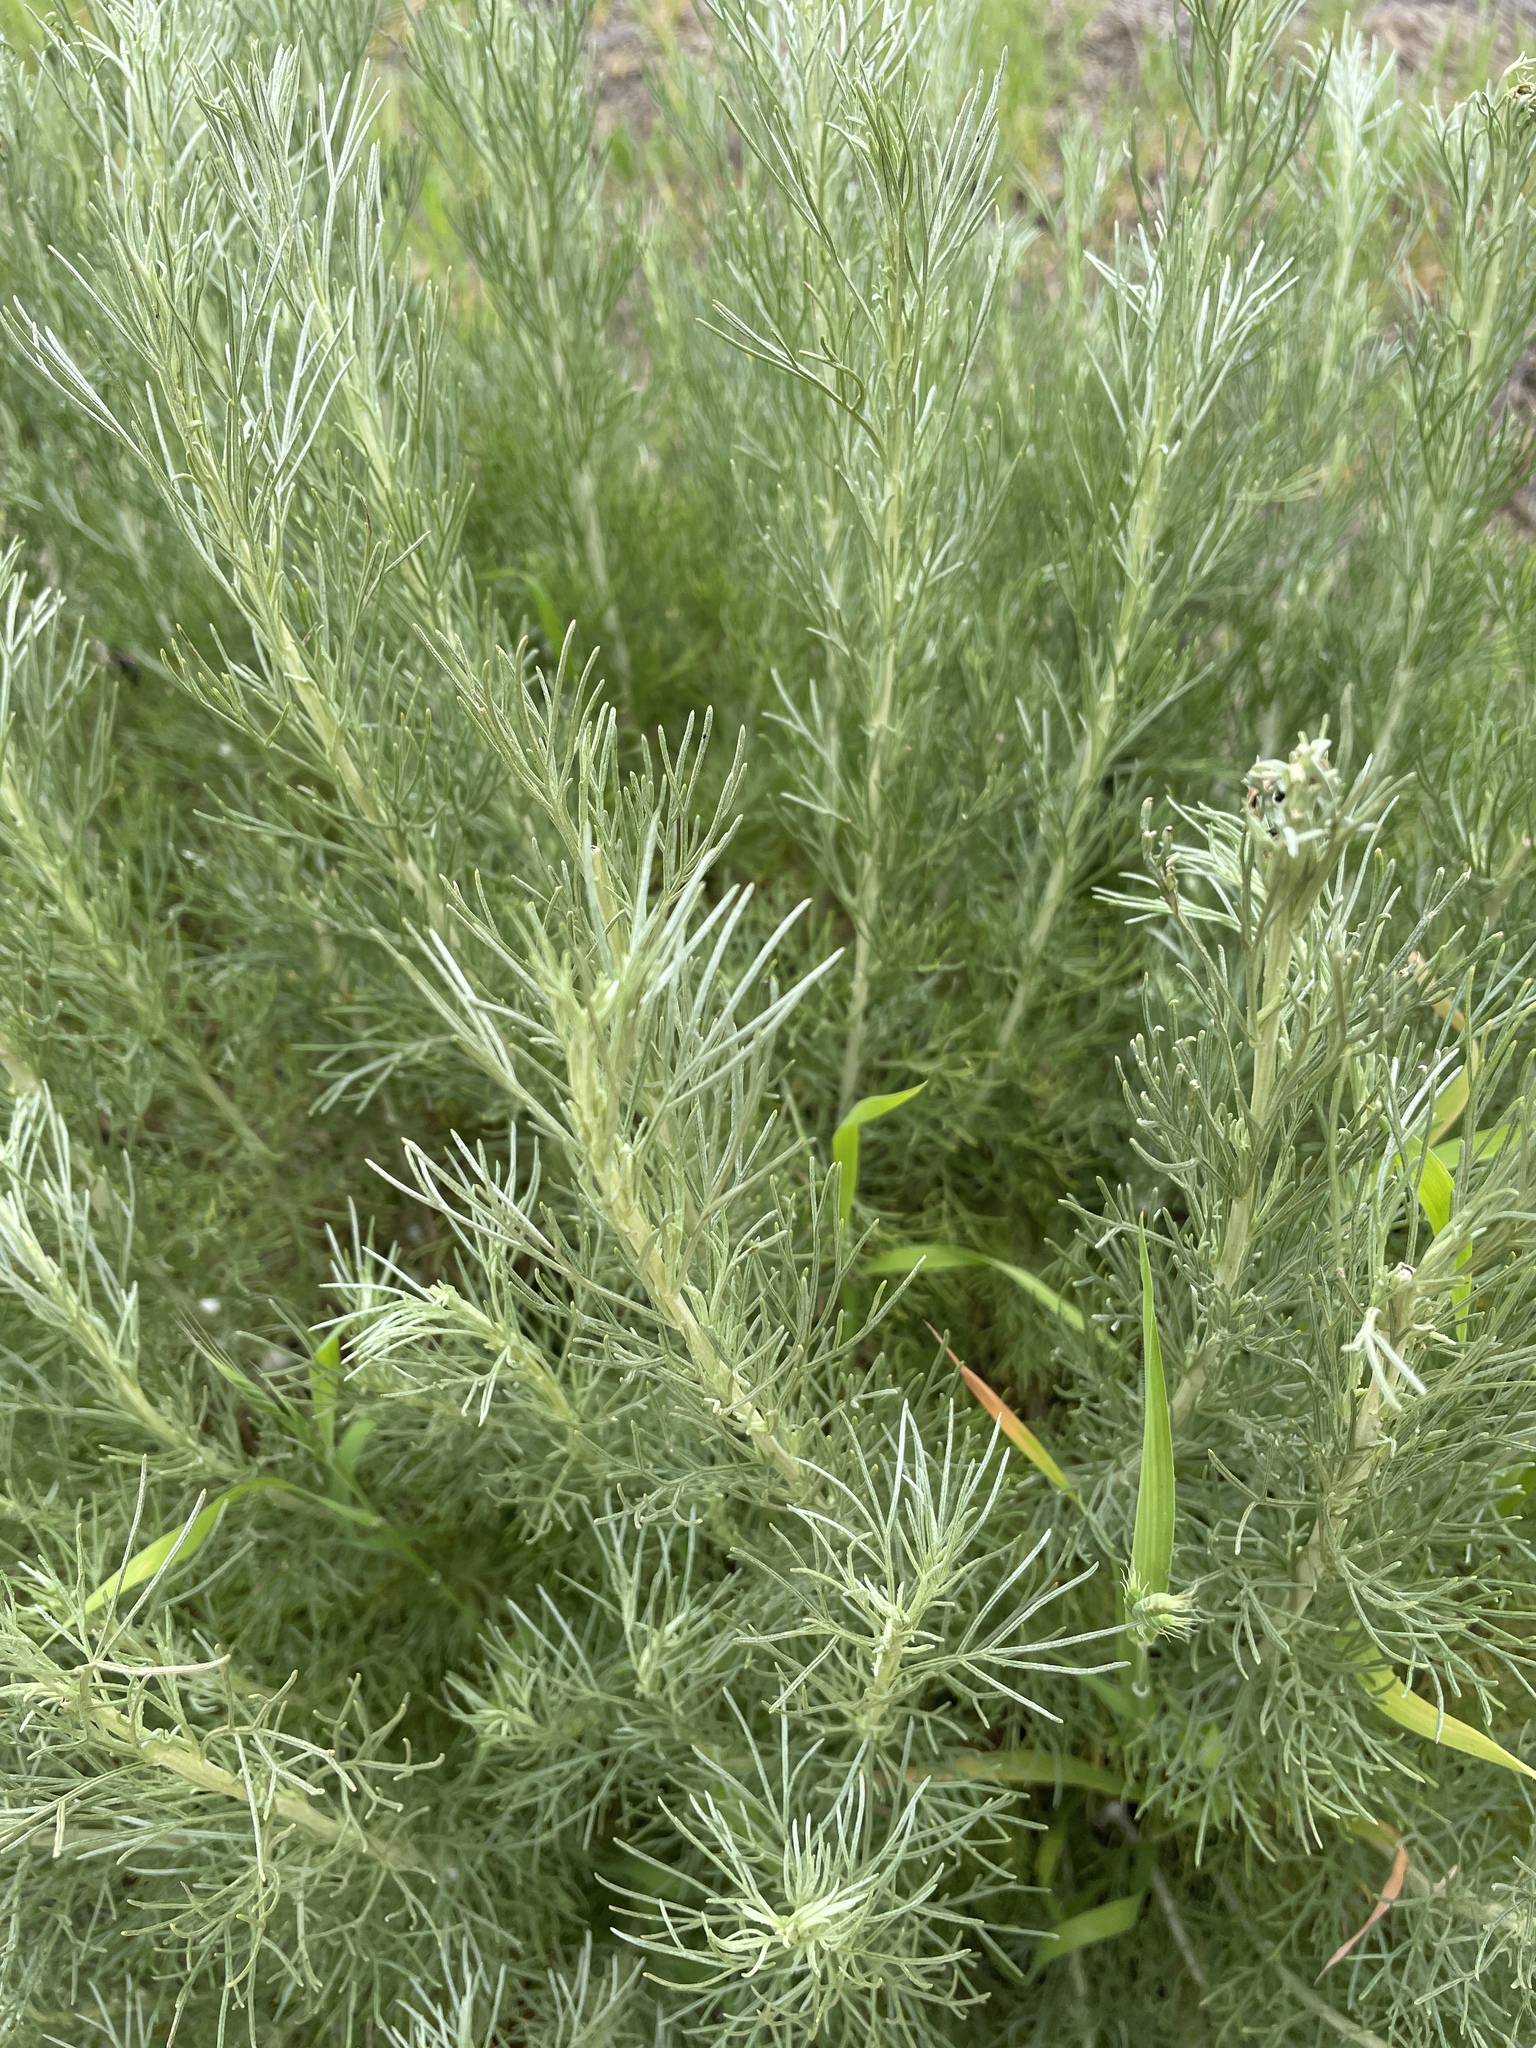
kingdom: Plantae
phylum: Tracheophyta
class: Magnoliopsida
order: Asterales
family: Asteraceae
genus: Artemisia
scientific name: Artemisia californica
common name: California sagebrush
